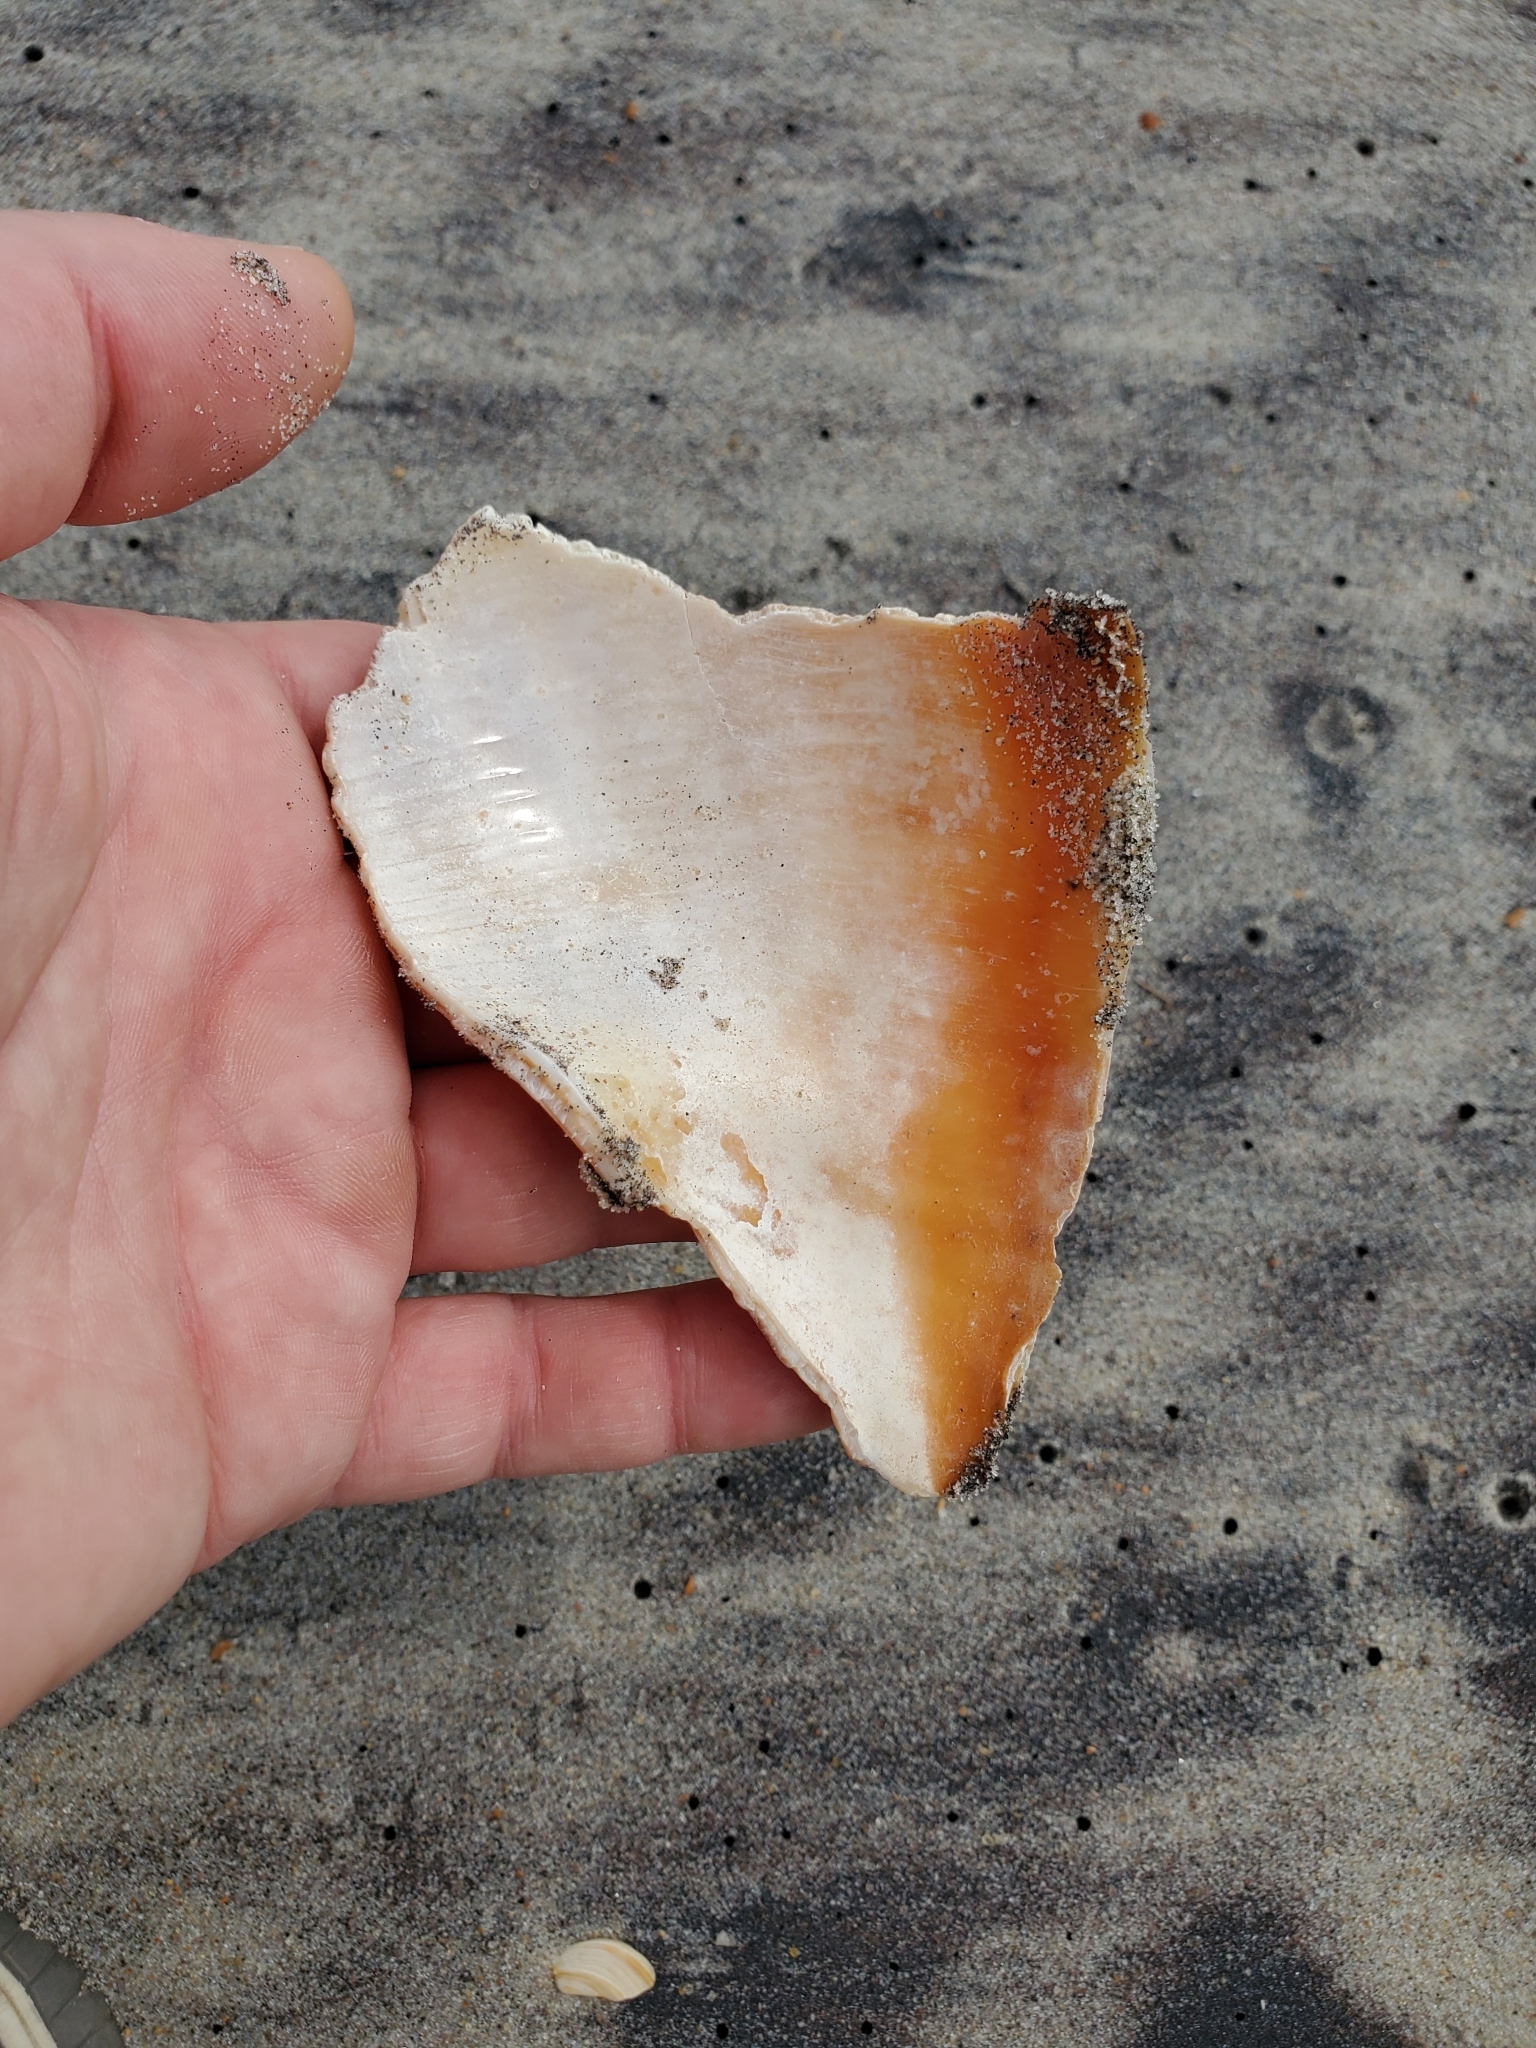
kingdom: Animalia
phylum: Mollusca
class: Gastropoda
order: Neogastropoda
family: Busyconidae
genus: Busycon
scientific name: Busycon carica
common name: Knobbed whelk
